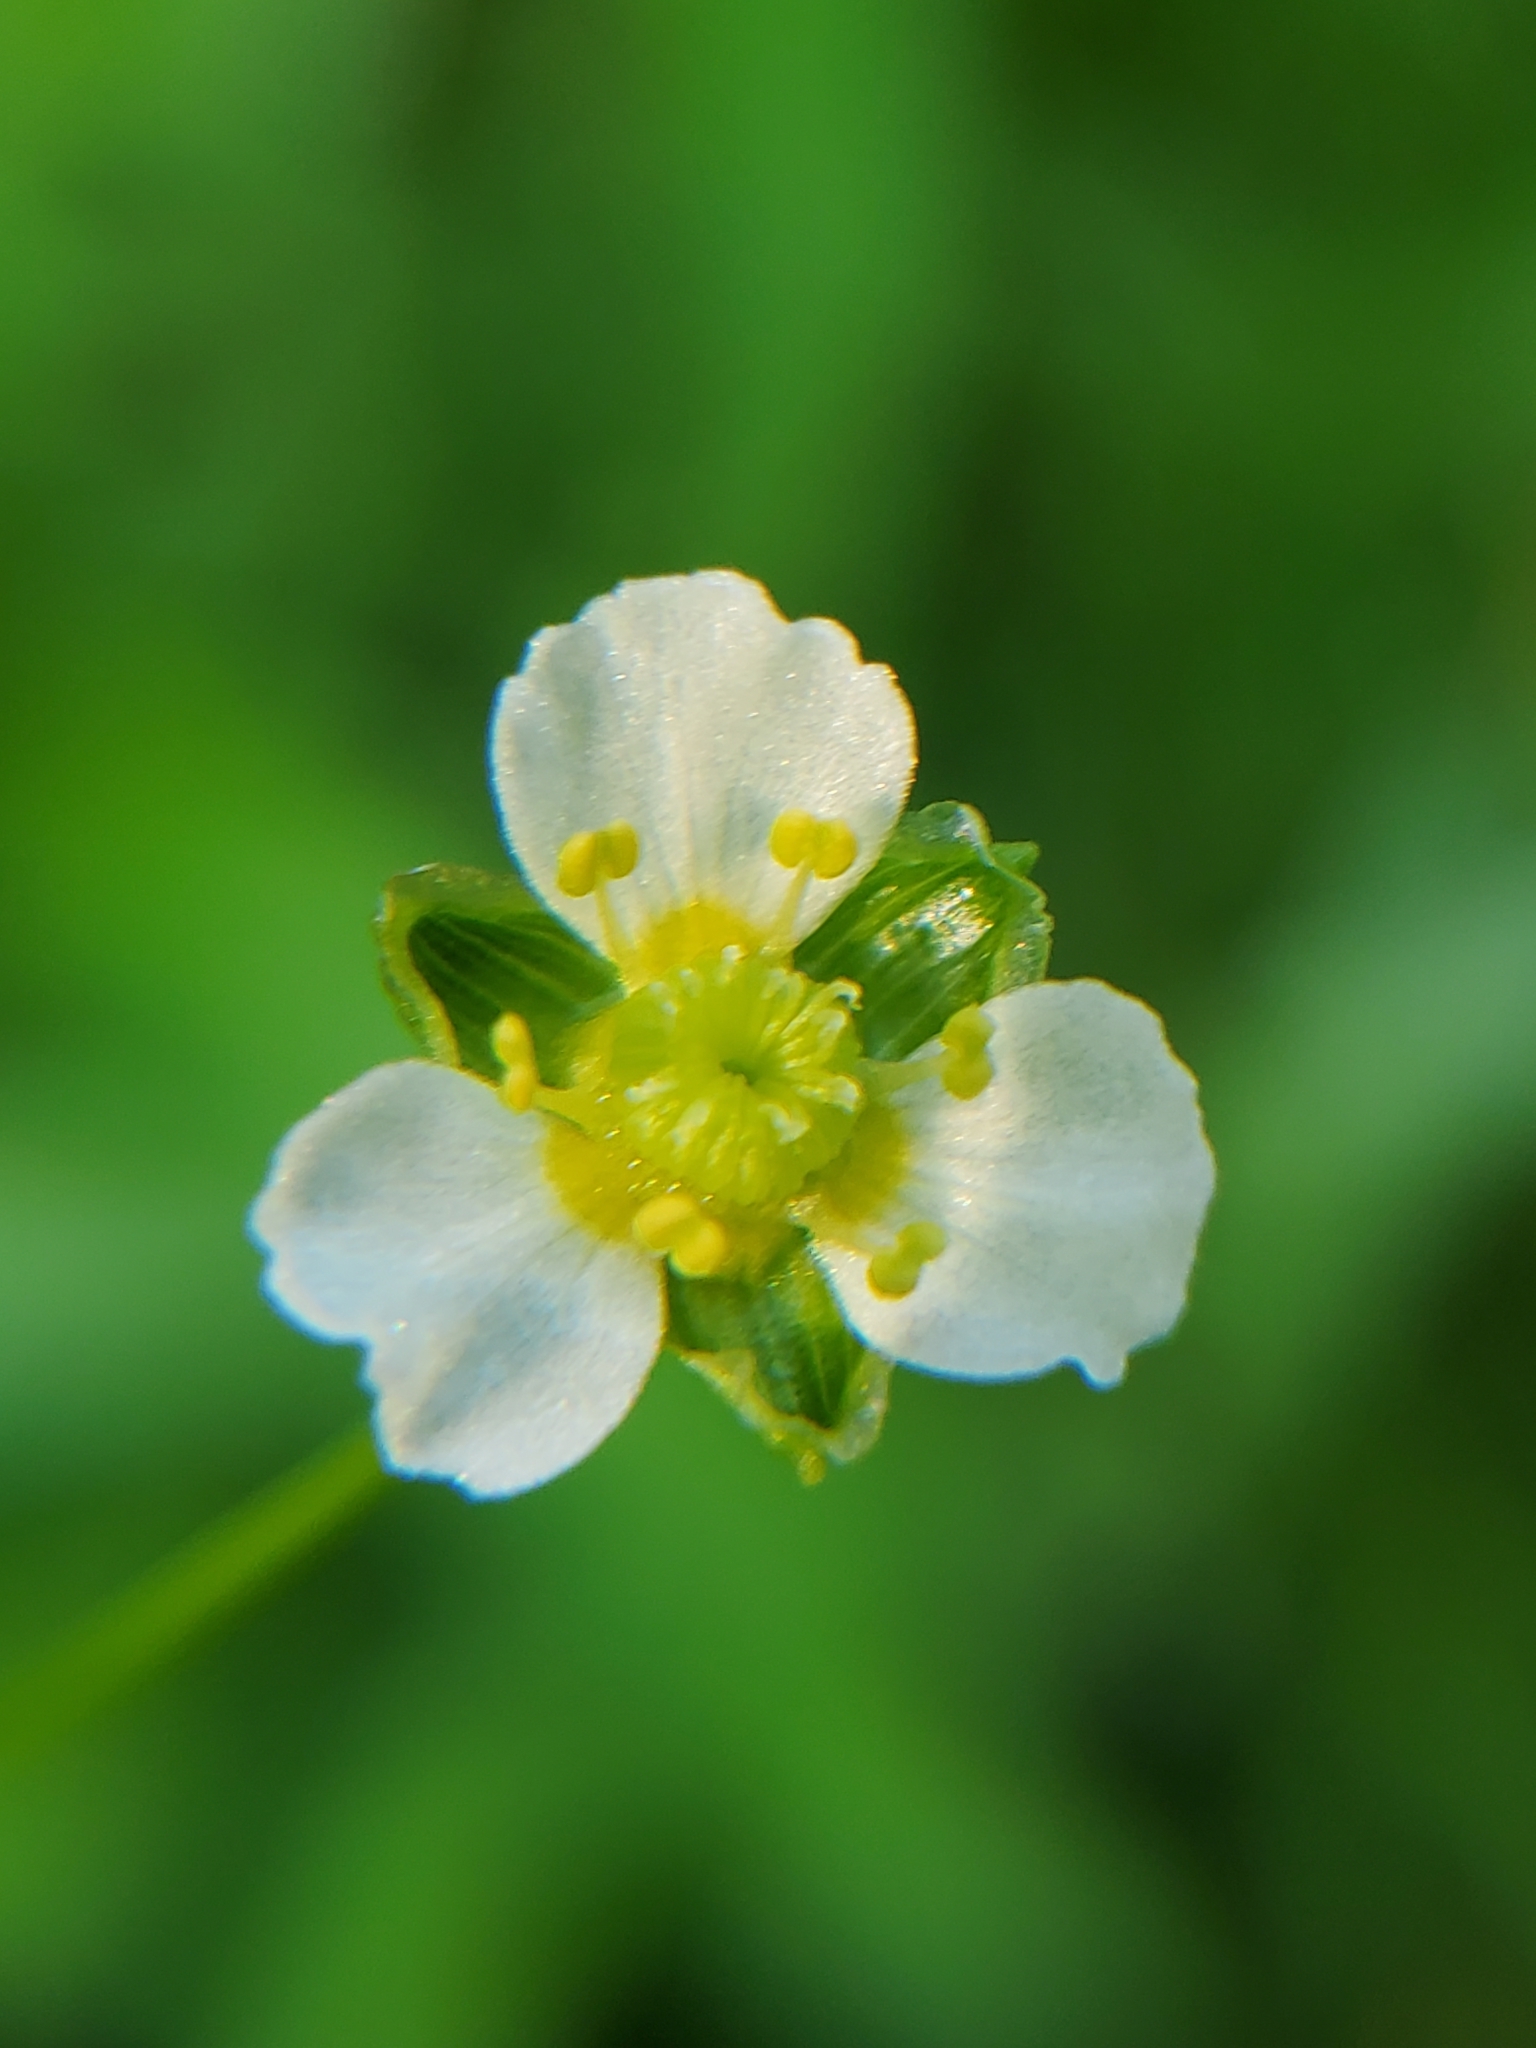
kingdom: Plantae
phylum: Tracheophyta
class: Liliopsida
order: Alismatales
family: Alismataceae
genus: Alisma
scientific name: Alisma triviale
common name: Northern water-plantain
